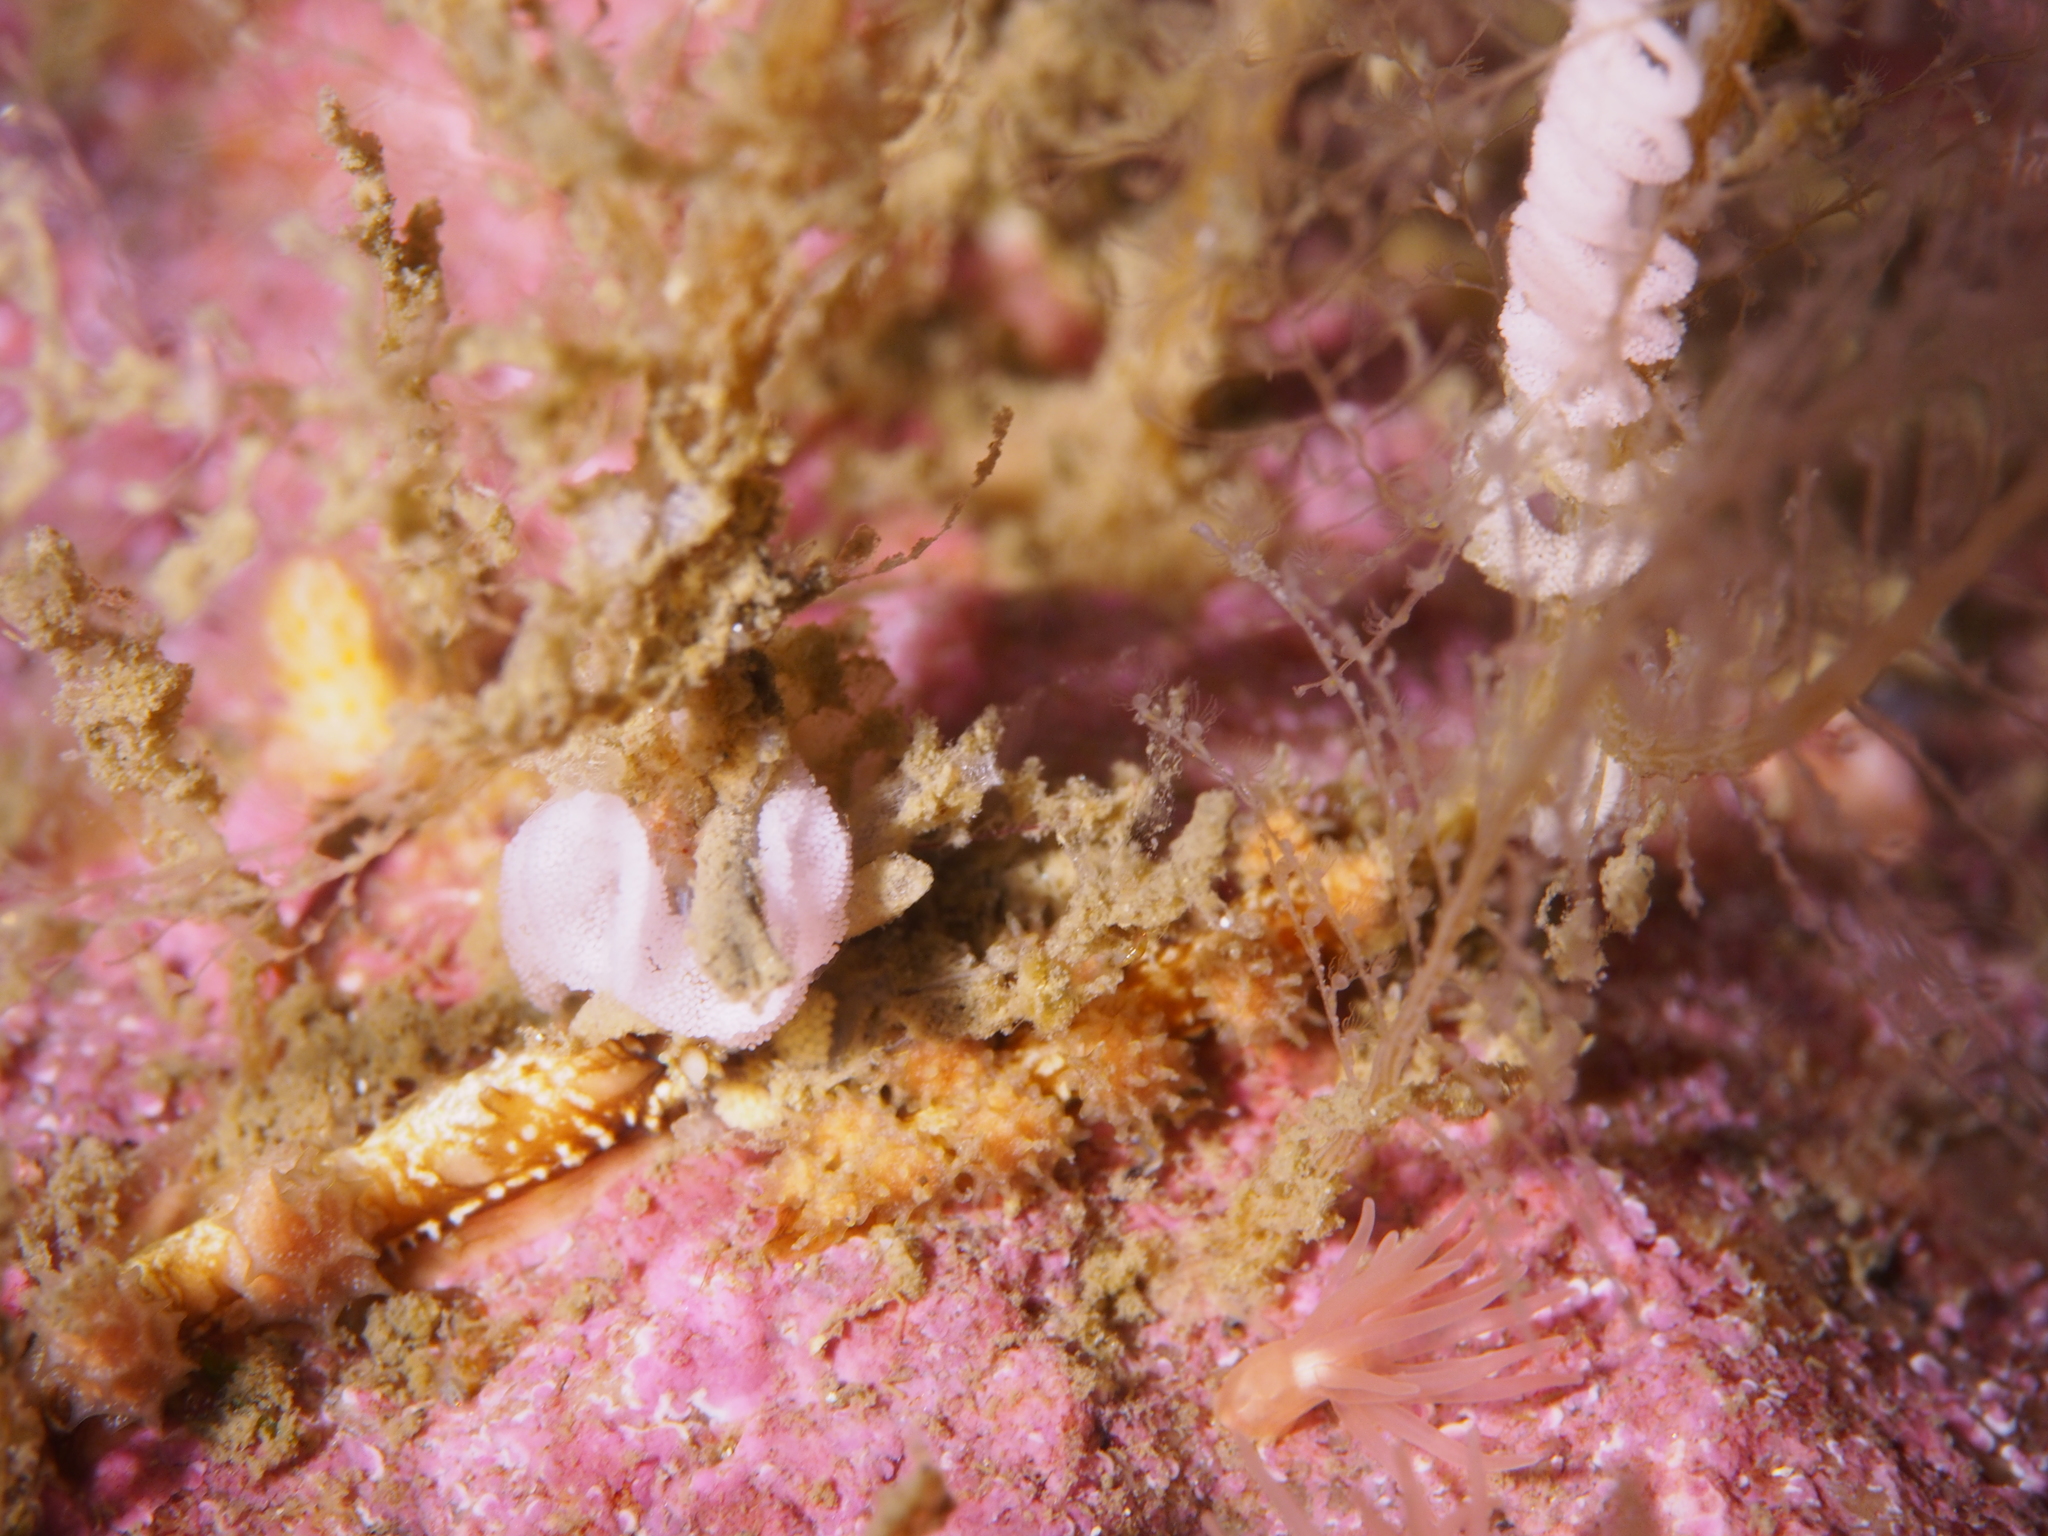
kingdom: Animalia
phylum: Mollusca
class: Gastropoda
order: Nudibranchia
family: Dotidae
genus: Doto
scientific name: Doto hystrix
